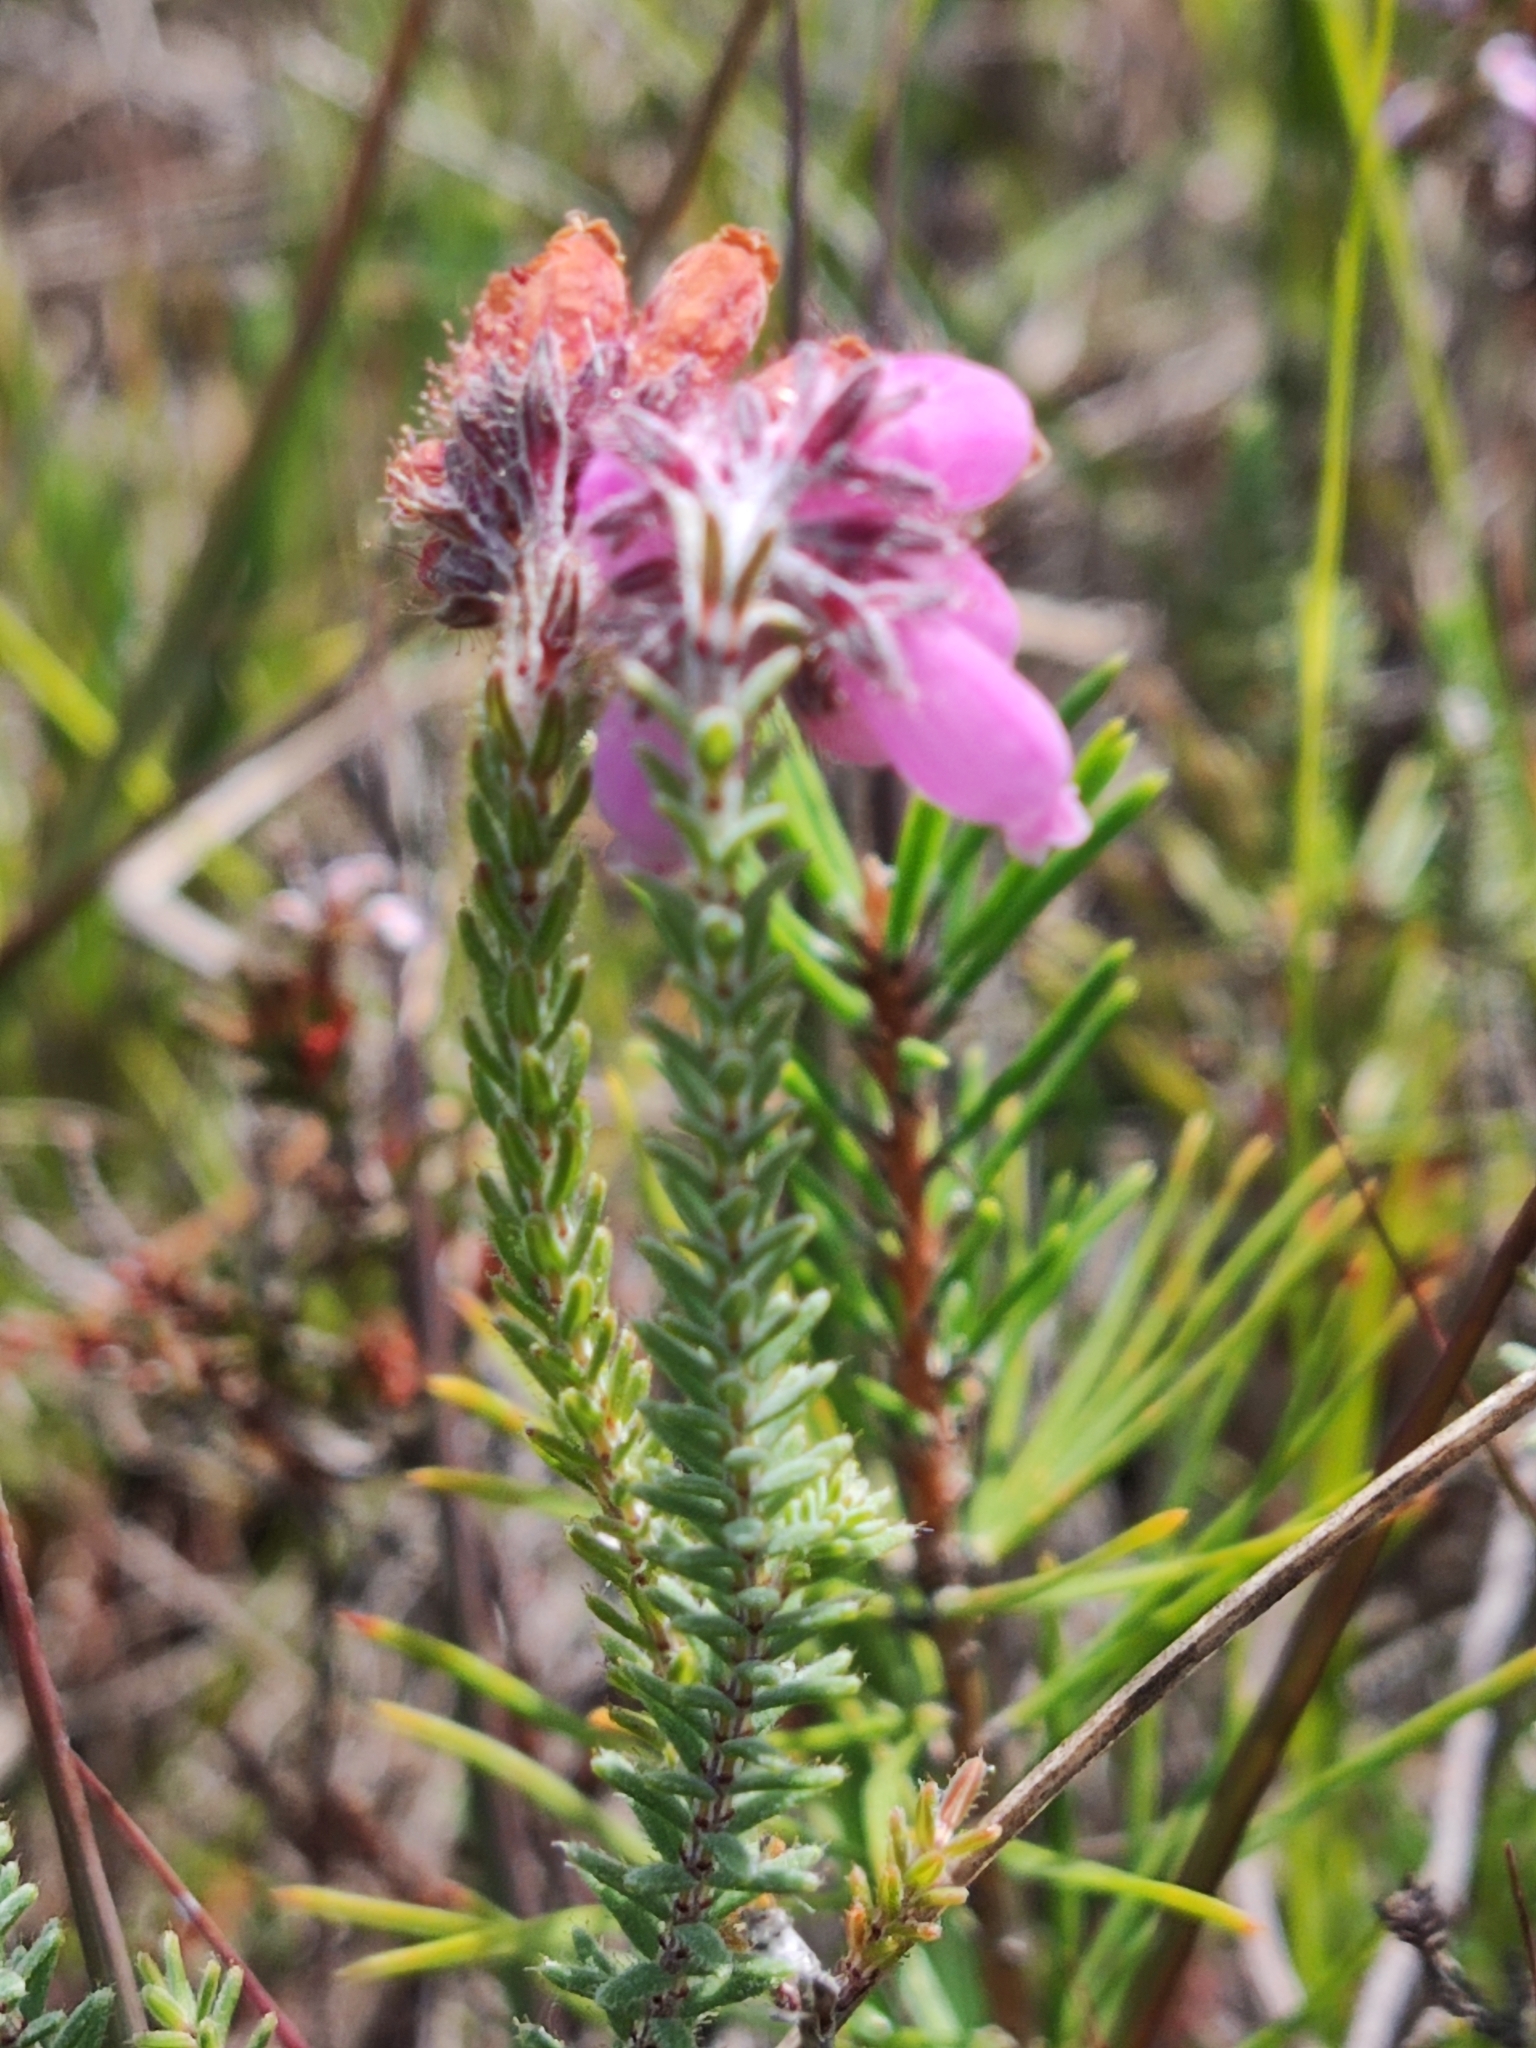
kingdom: Plantae
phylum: Tracheophyta
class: Magnoliopsida
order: Ericales
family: Ericaceae
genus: Erica
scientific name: Erica tetralix
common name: Cross-leaved heath
